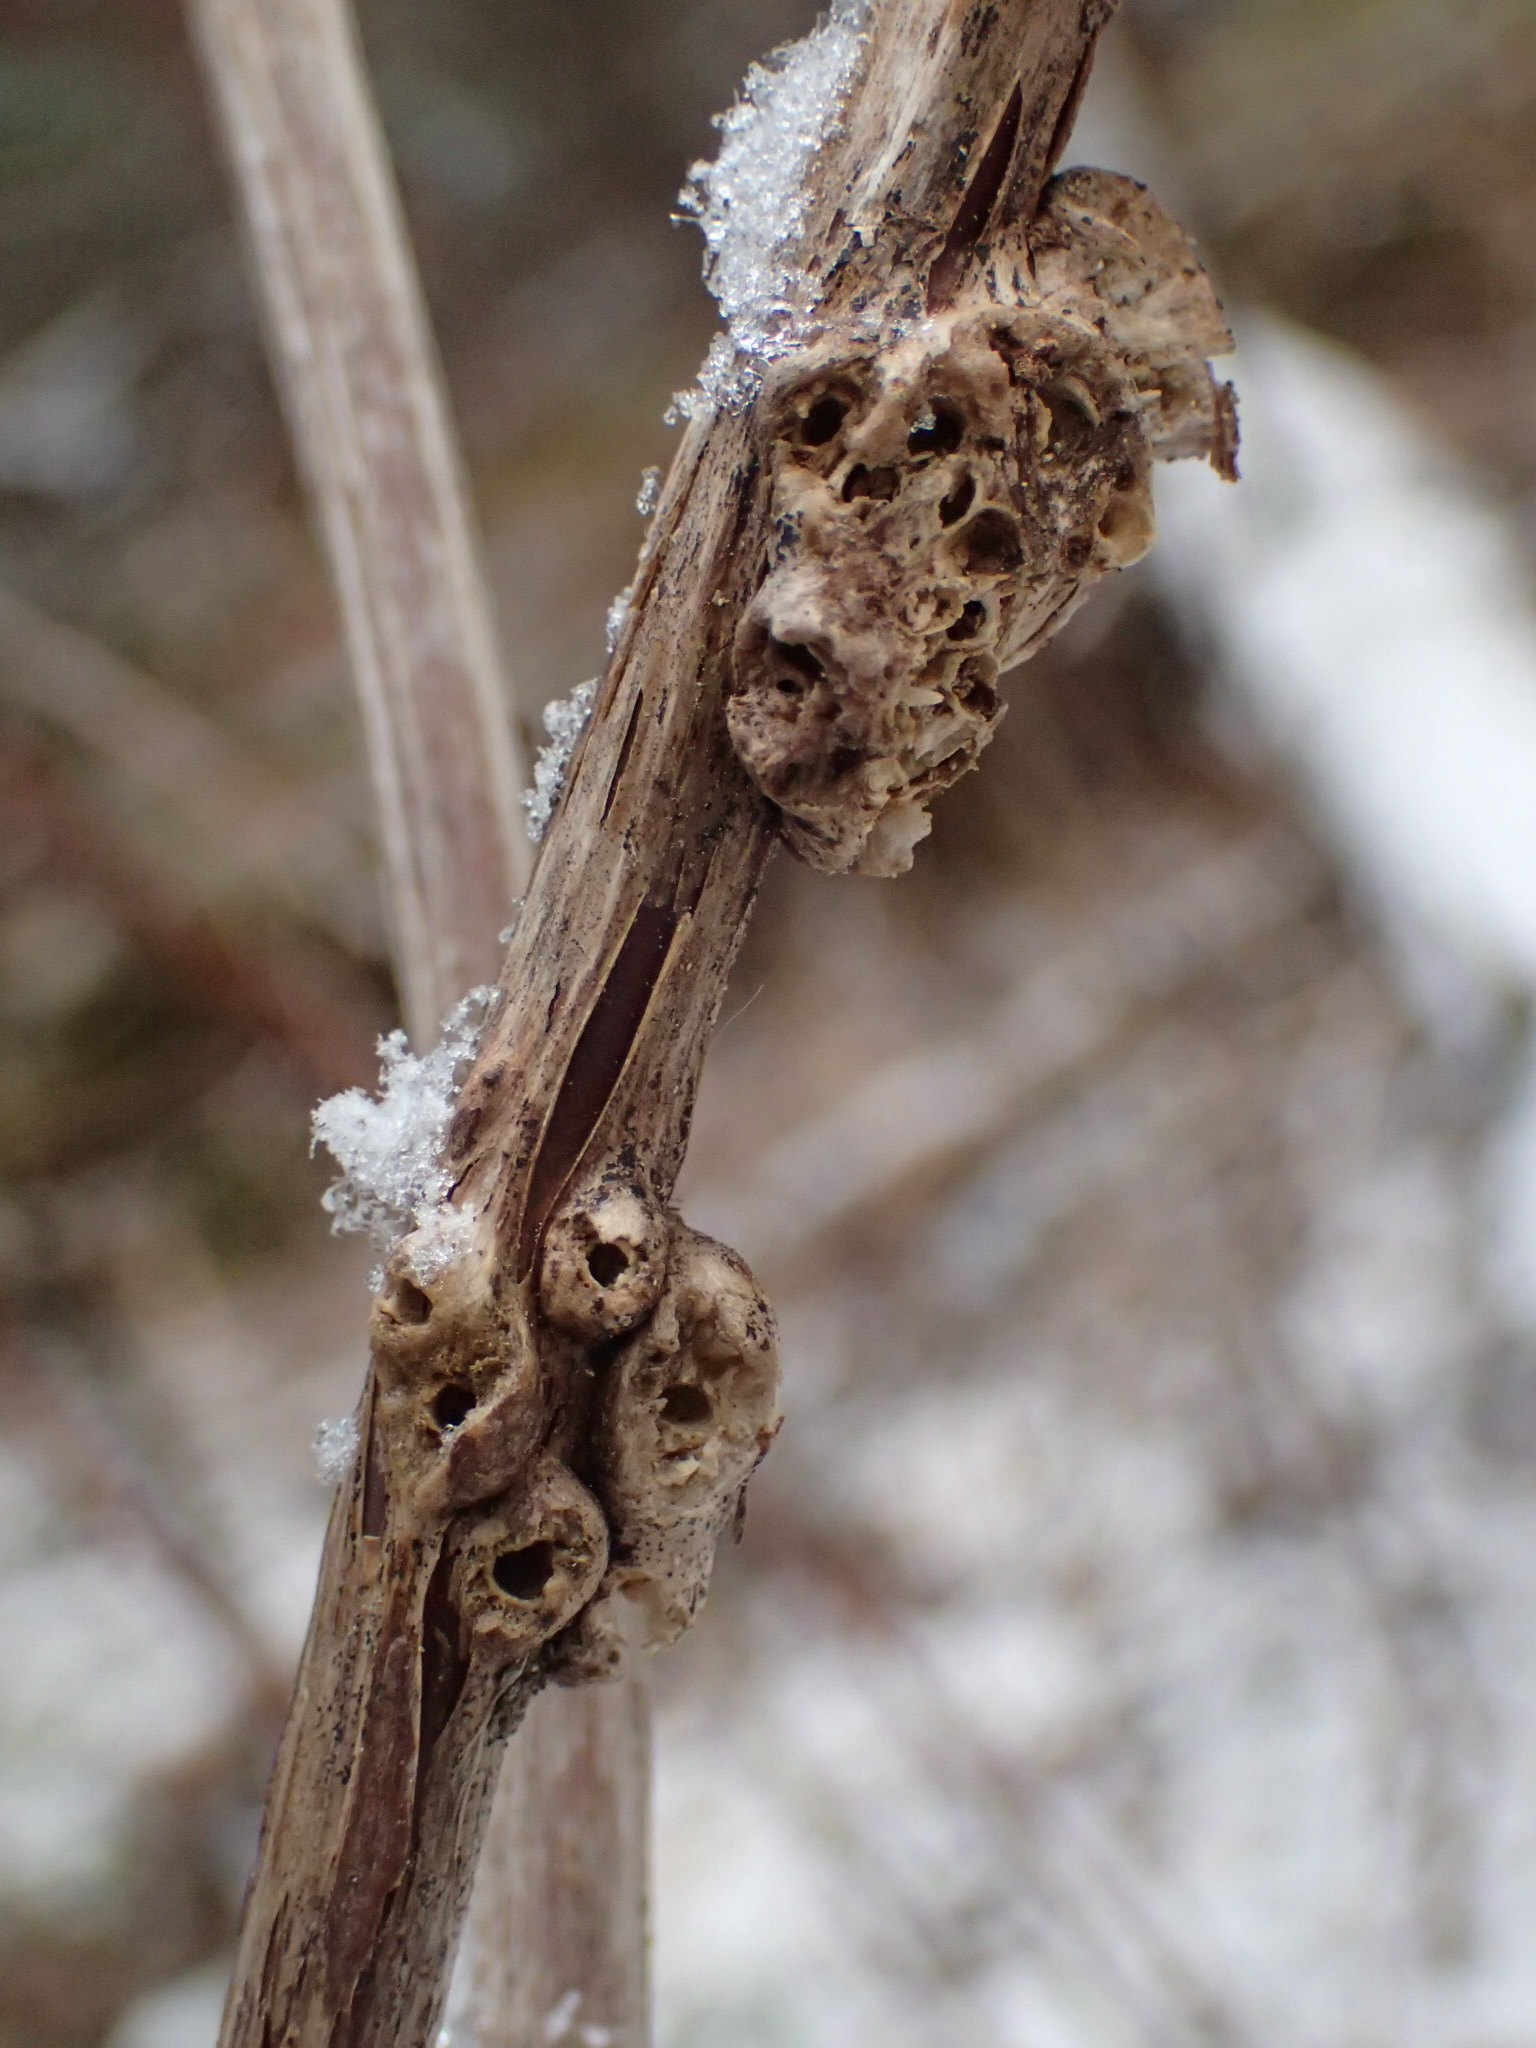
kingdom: Animalia
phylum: Arthropoda
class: Insecta
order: Hymenoptera
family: Cynipidae
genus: Diastrophus
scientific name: Diastrophus
